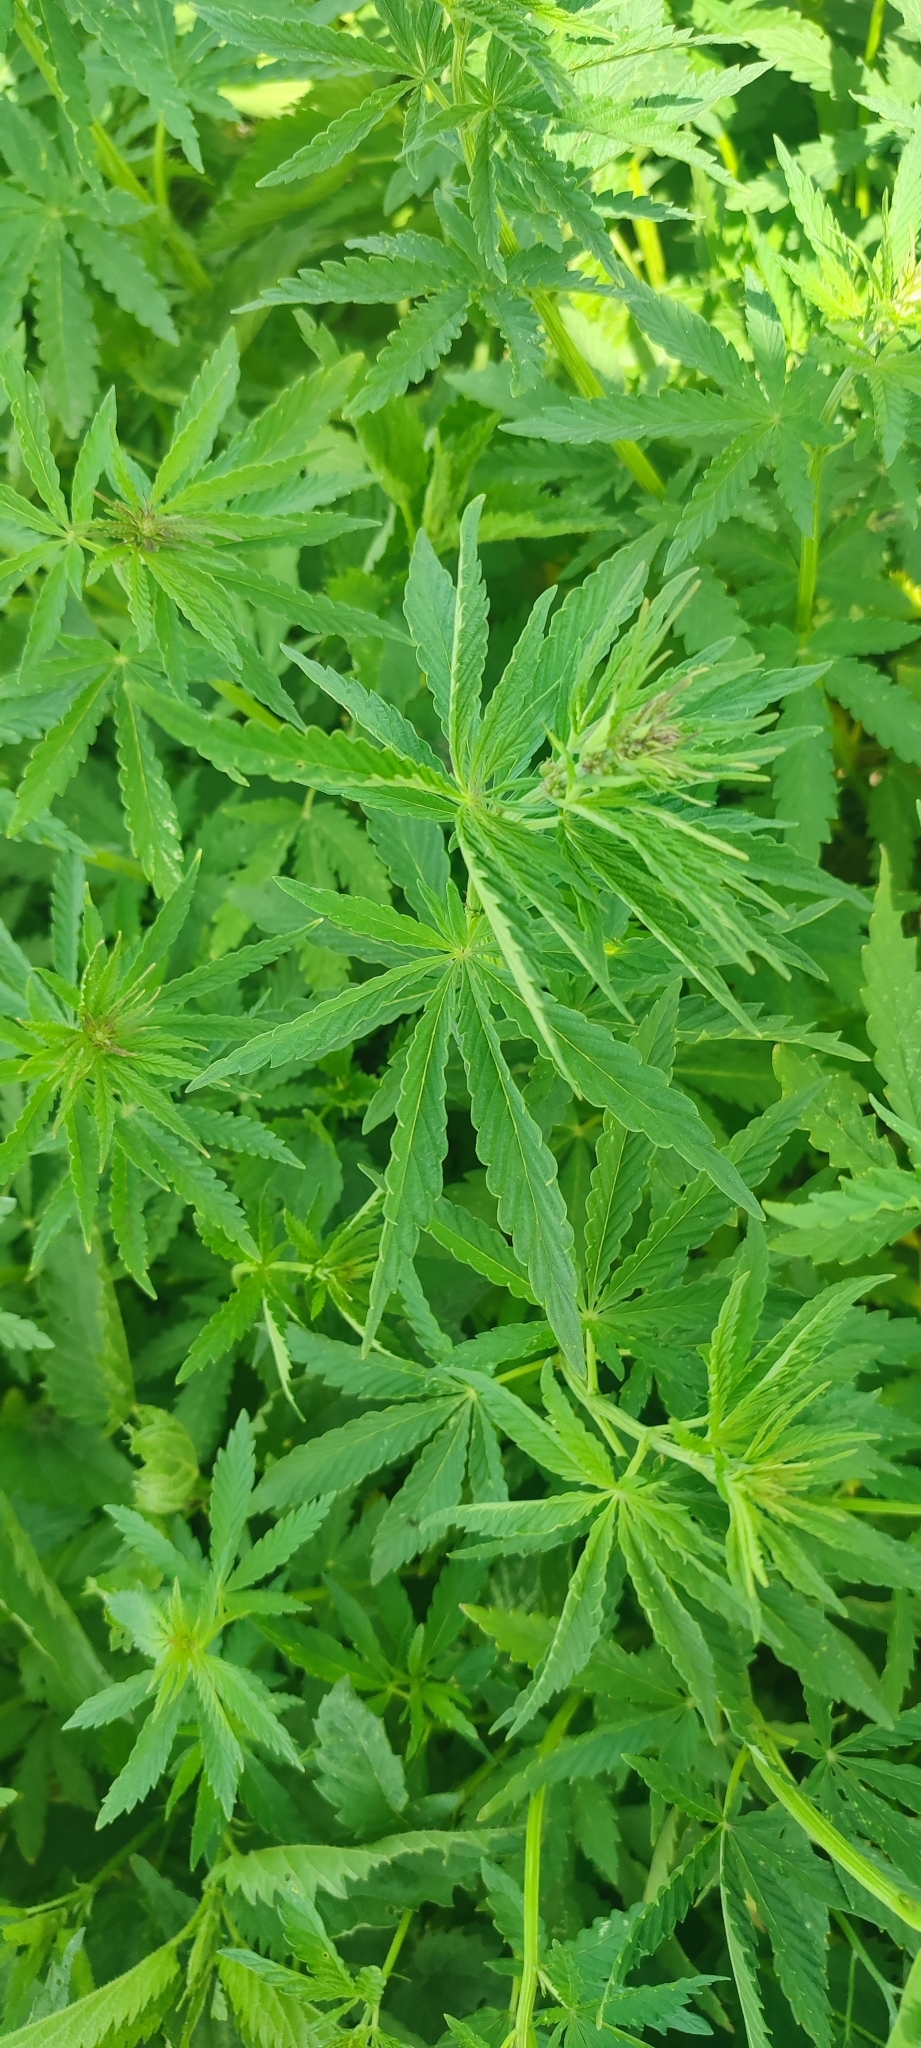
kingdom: Plantae
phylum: Tracheophyta
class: Magnoliopsida
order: Rosales
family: Cannabaceae
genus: Cannabis
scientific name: Cannabis sativa
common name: Hemp
